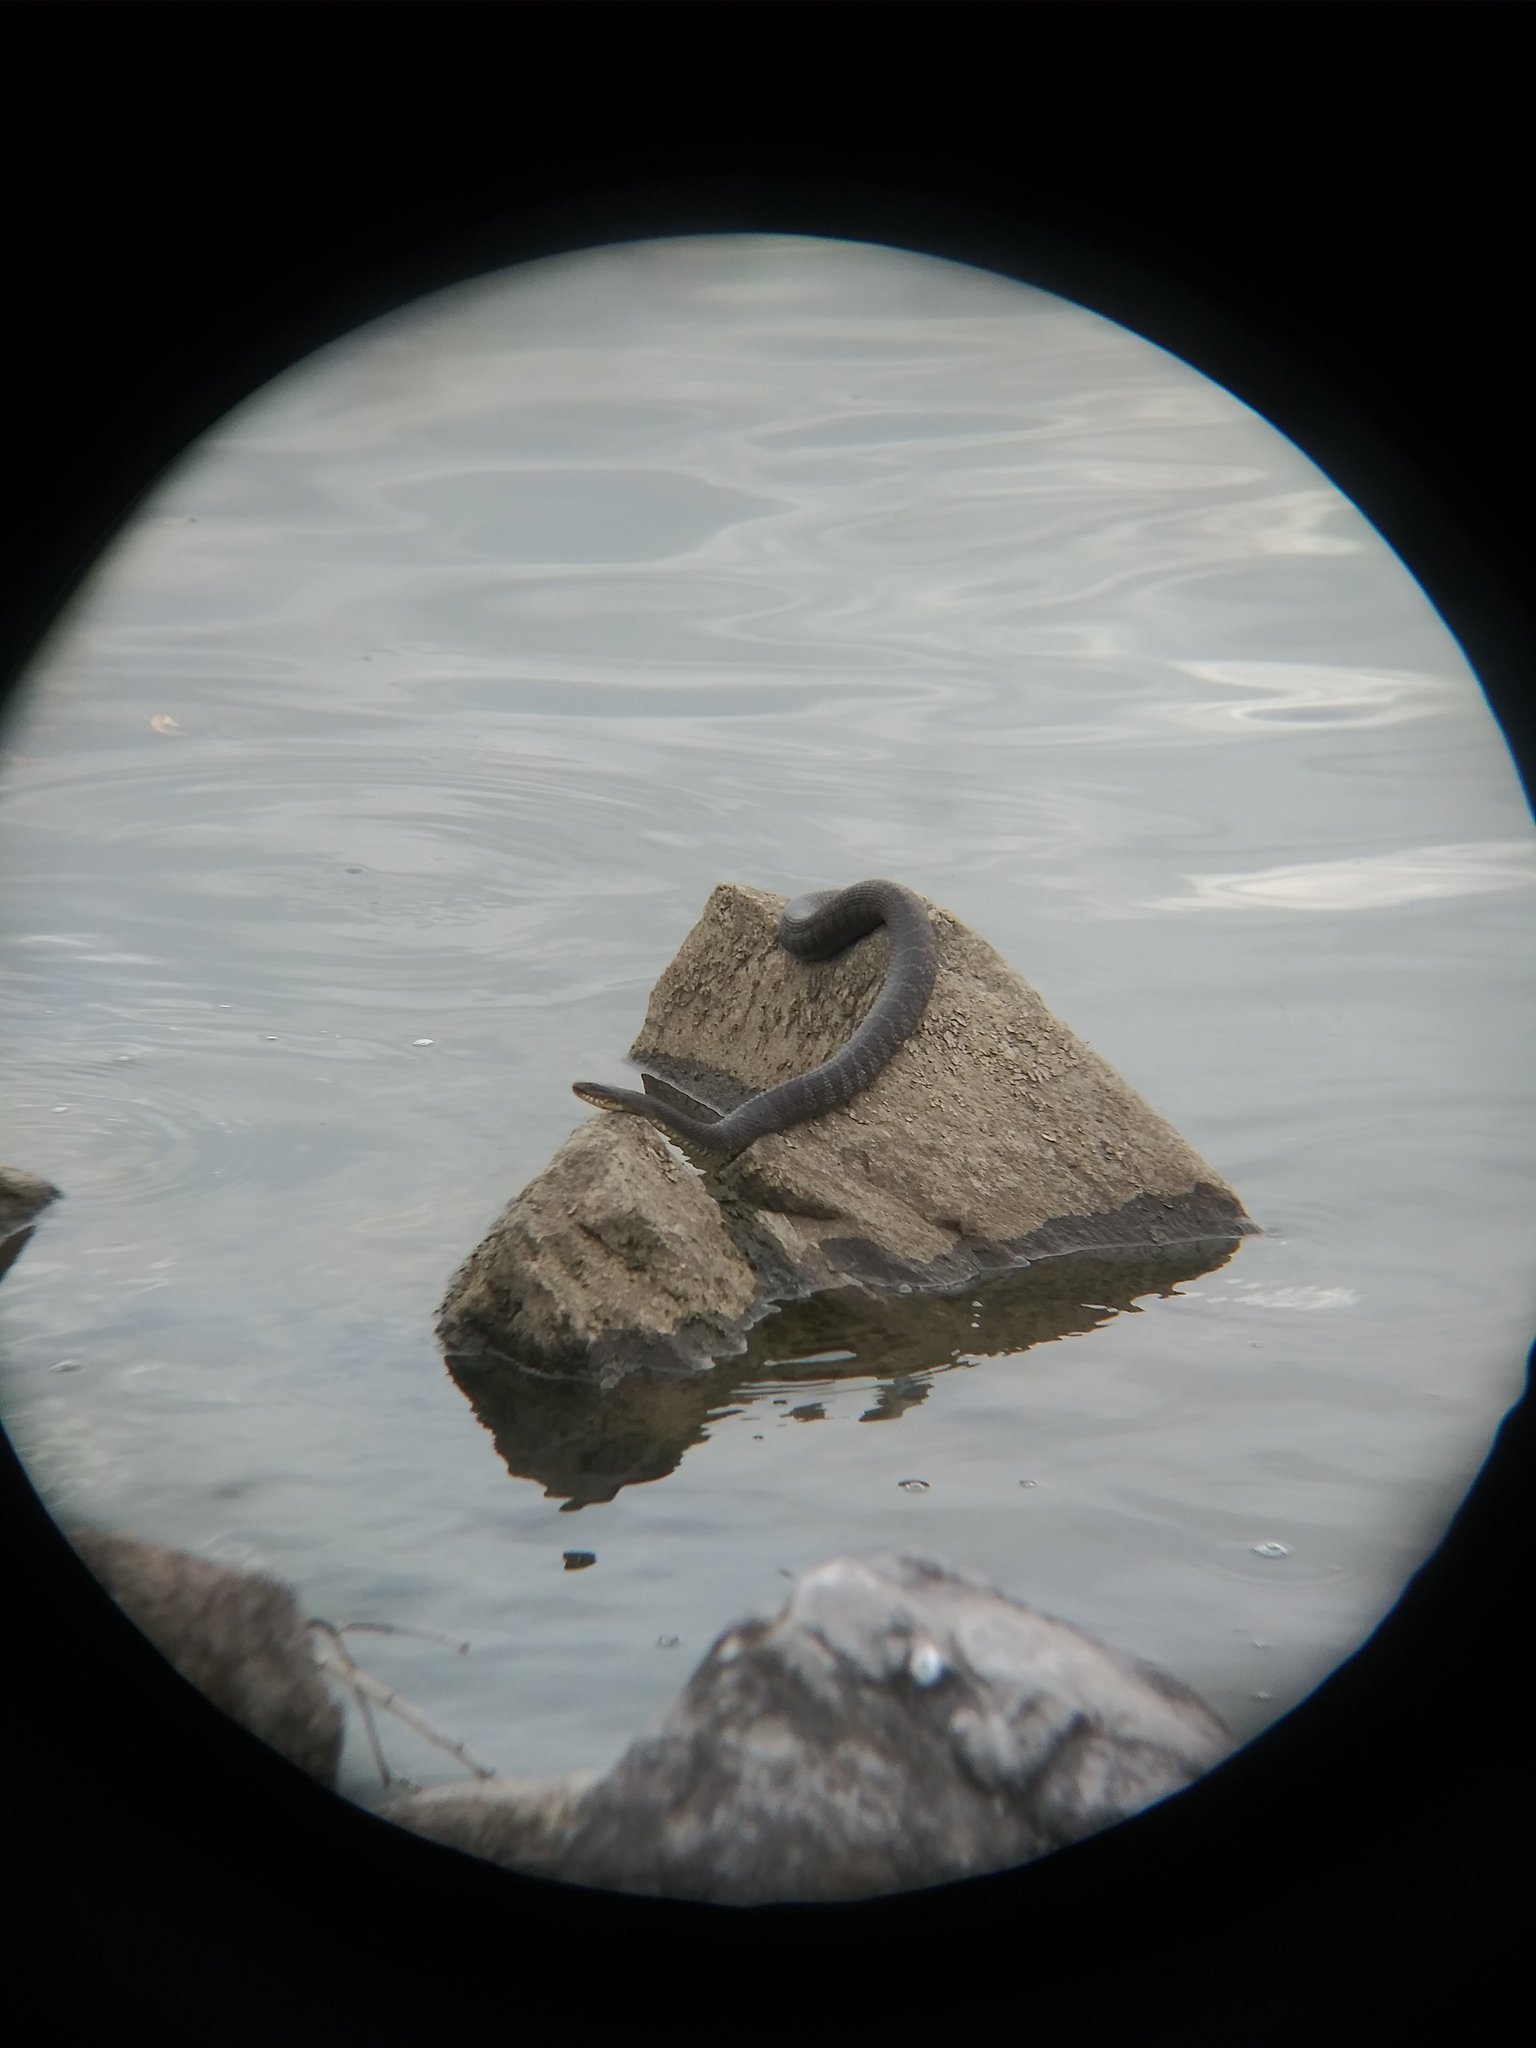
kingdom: Animalia
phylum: Chordata
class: Squamata
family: Colubridae
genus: Nerodia
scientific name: Nerodia sipedon
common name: Northern water snake
